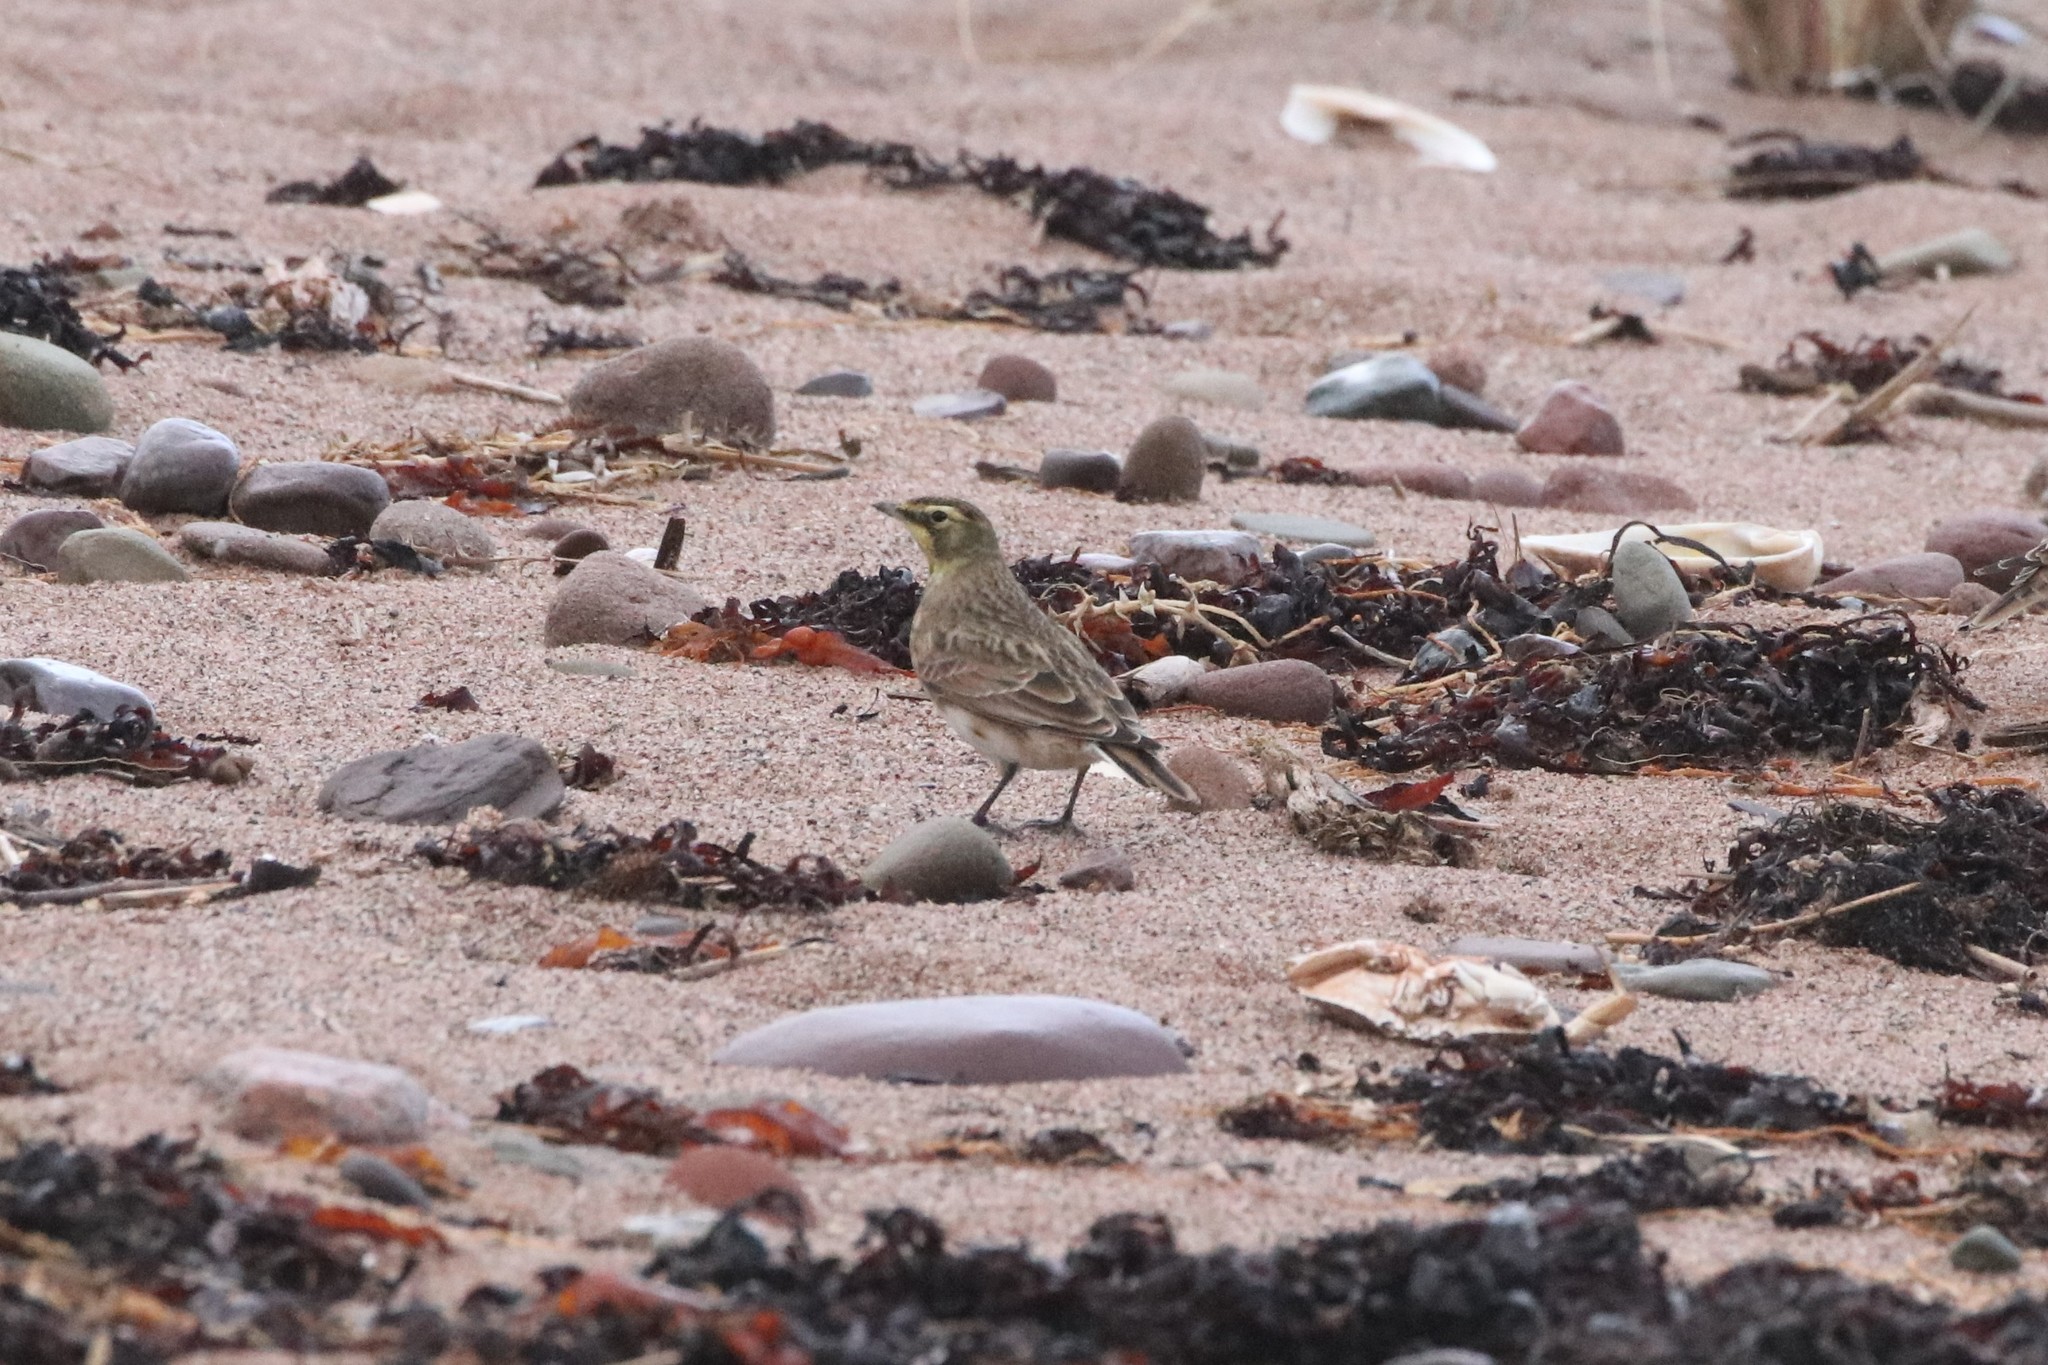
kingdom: Animalia
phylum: Chordata
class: Aves
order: Passeriformes
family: Alaudidae
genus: Eremophila
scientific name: Eremophila alpestris
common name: Horned lark
